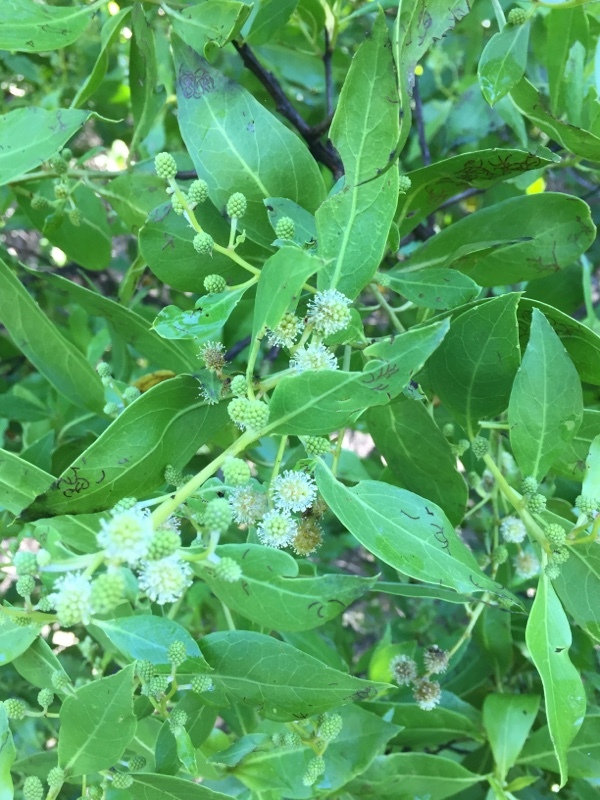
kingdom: Plantae
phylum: Tracheophyta
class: Magnoliopsida
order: Myrtales
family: Combretaceae
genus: Conocarpus
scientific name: Conocarpus erectus
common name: Button mangrove
